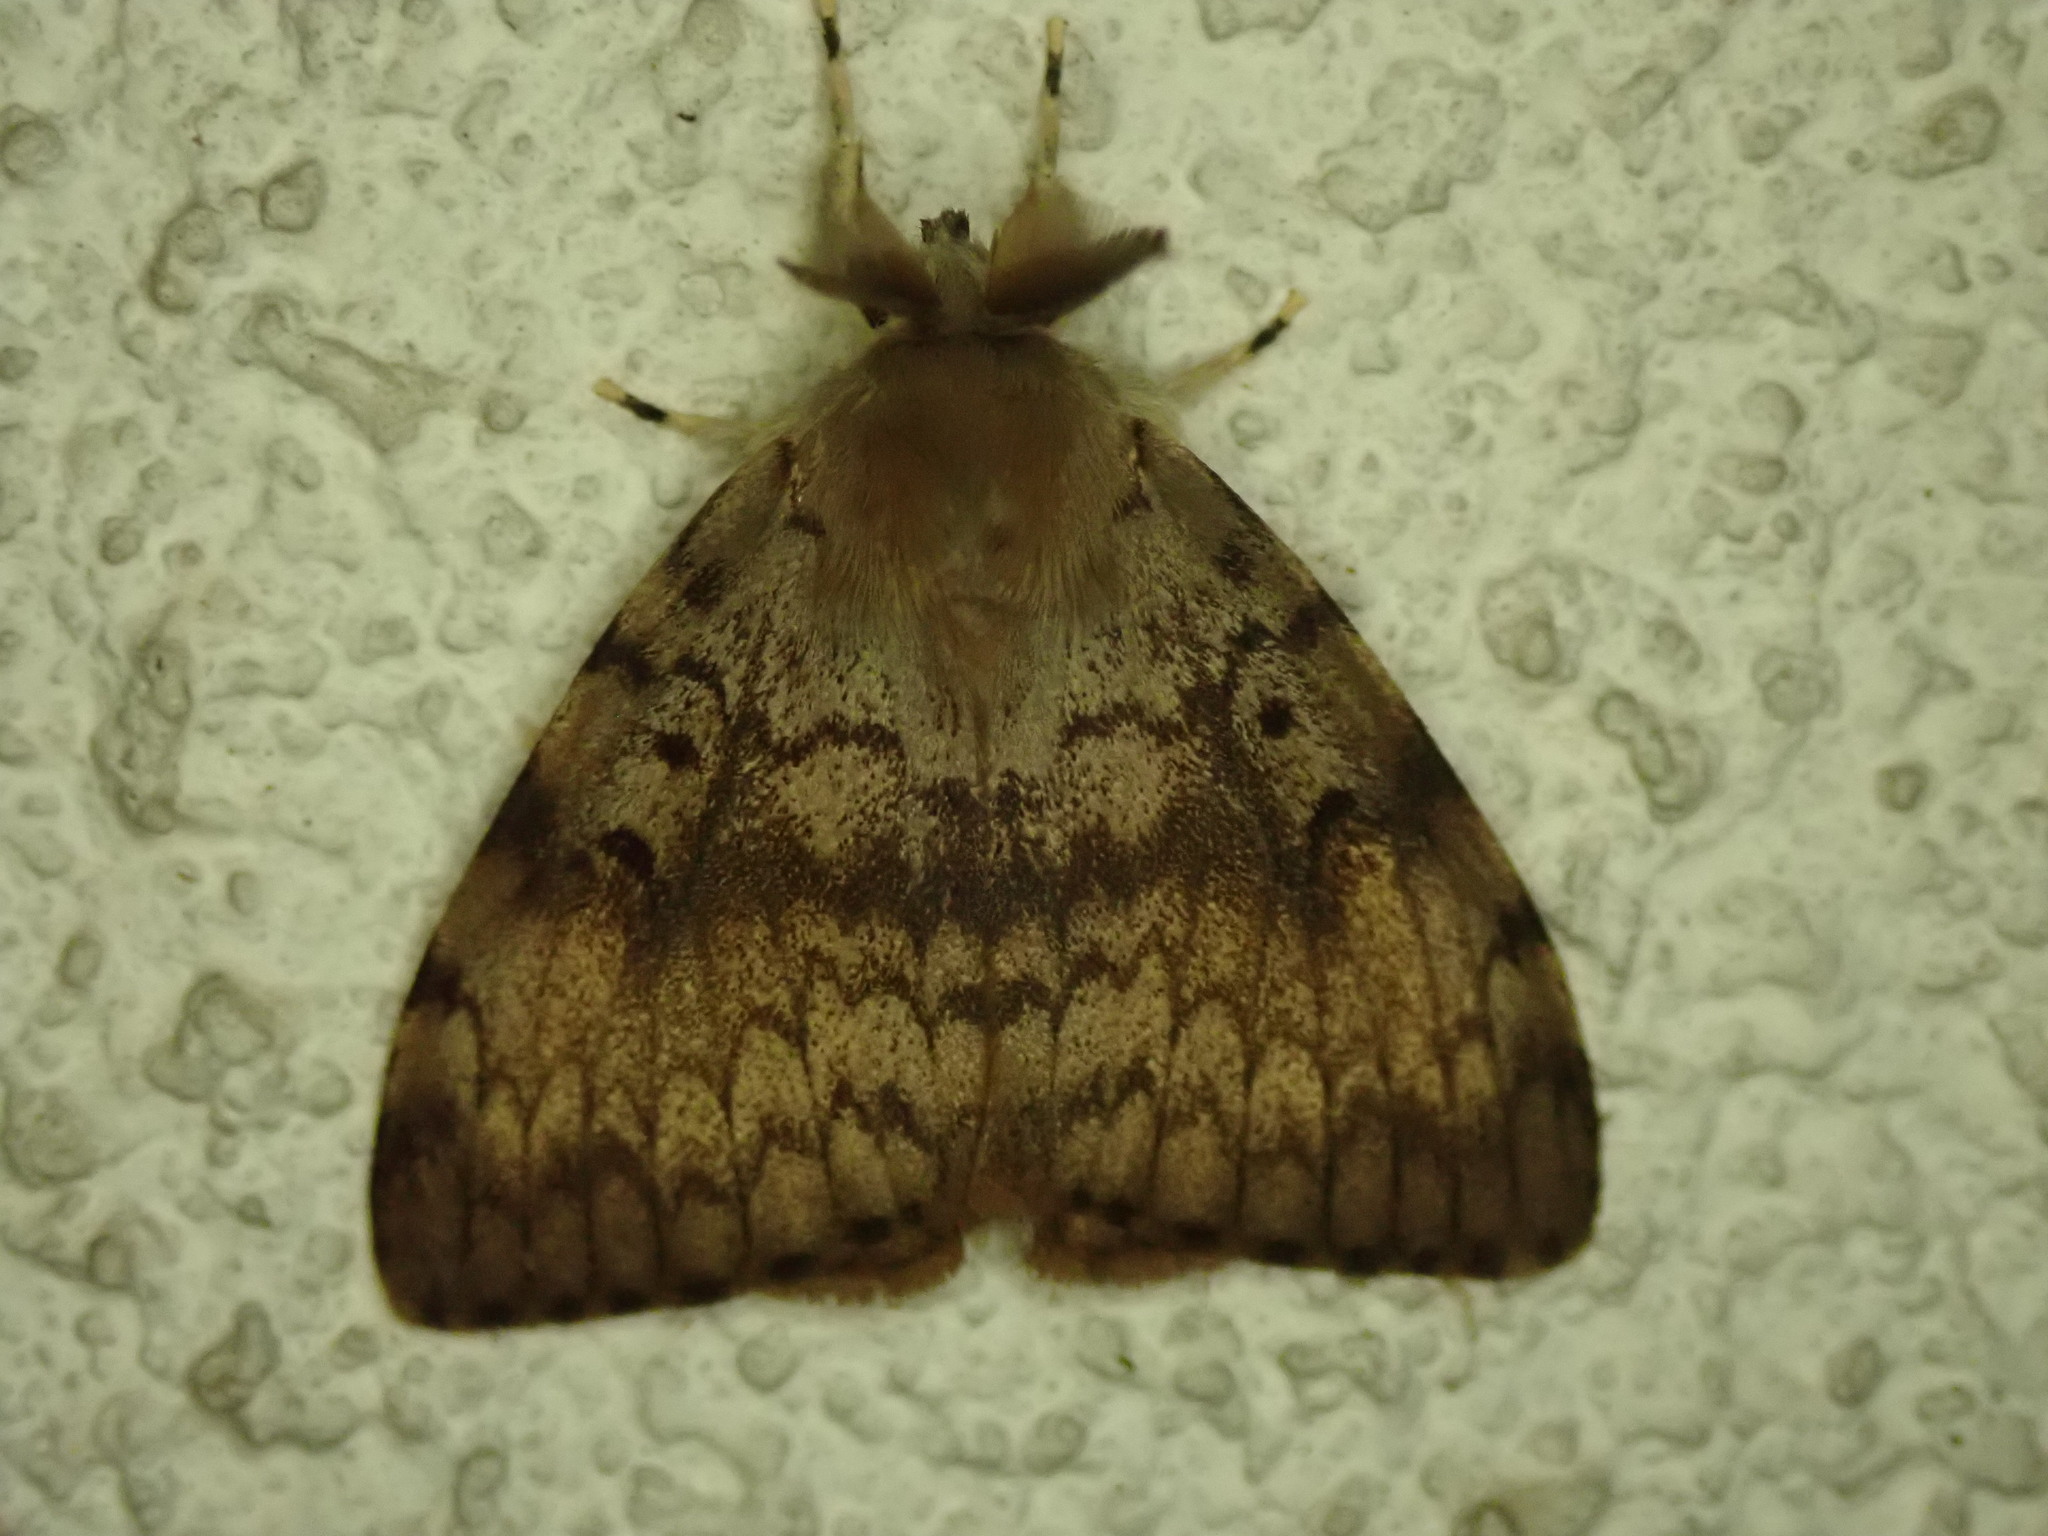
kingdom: Animalia
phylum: Arthropoda
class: Insecta
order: Lepidoptera
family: Erebidae
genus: Lymantria
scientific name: Lymantria dispar
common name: Gypsy moth
